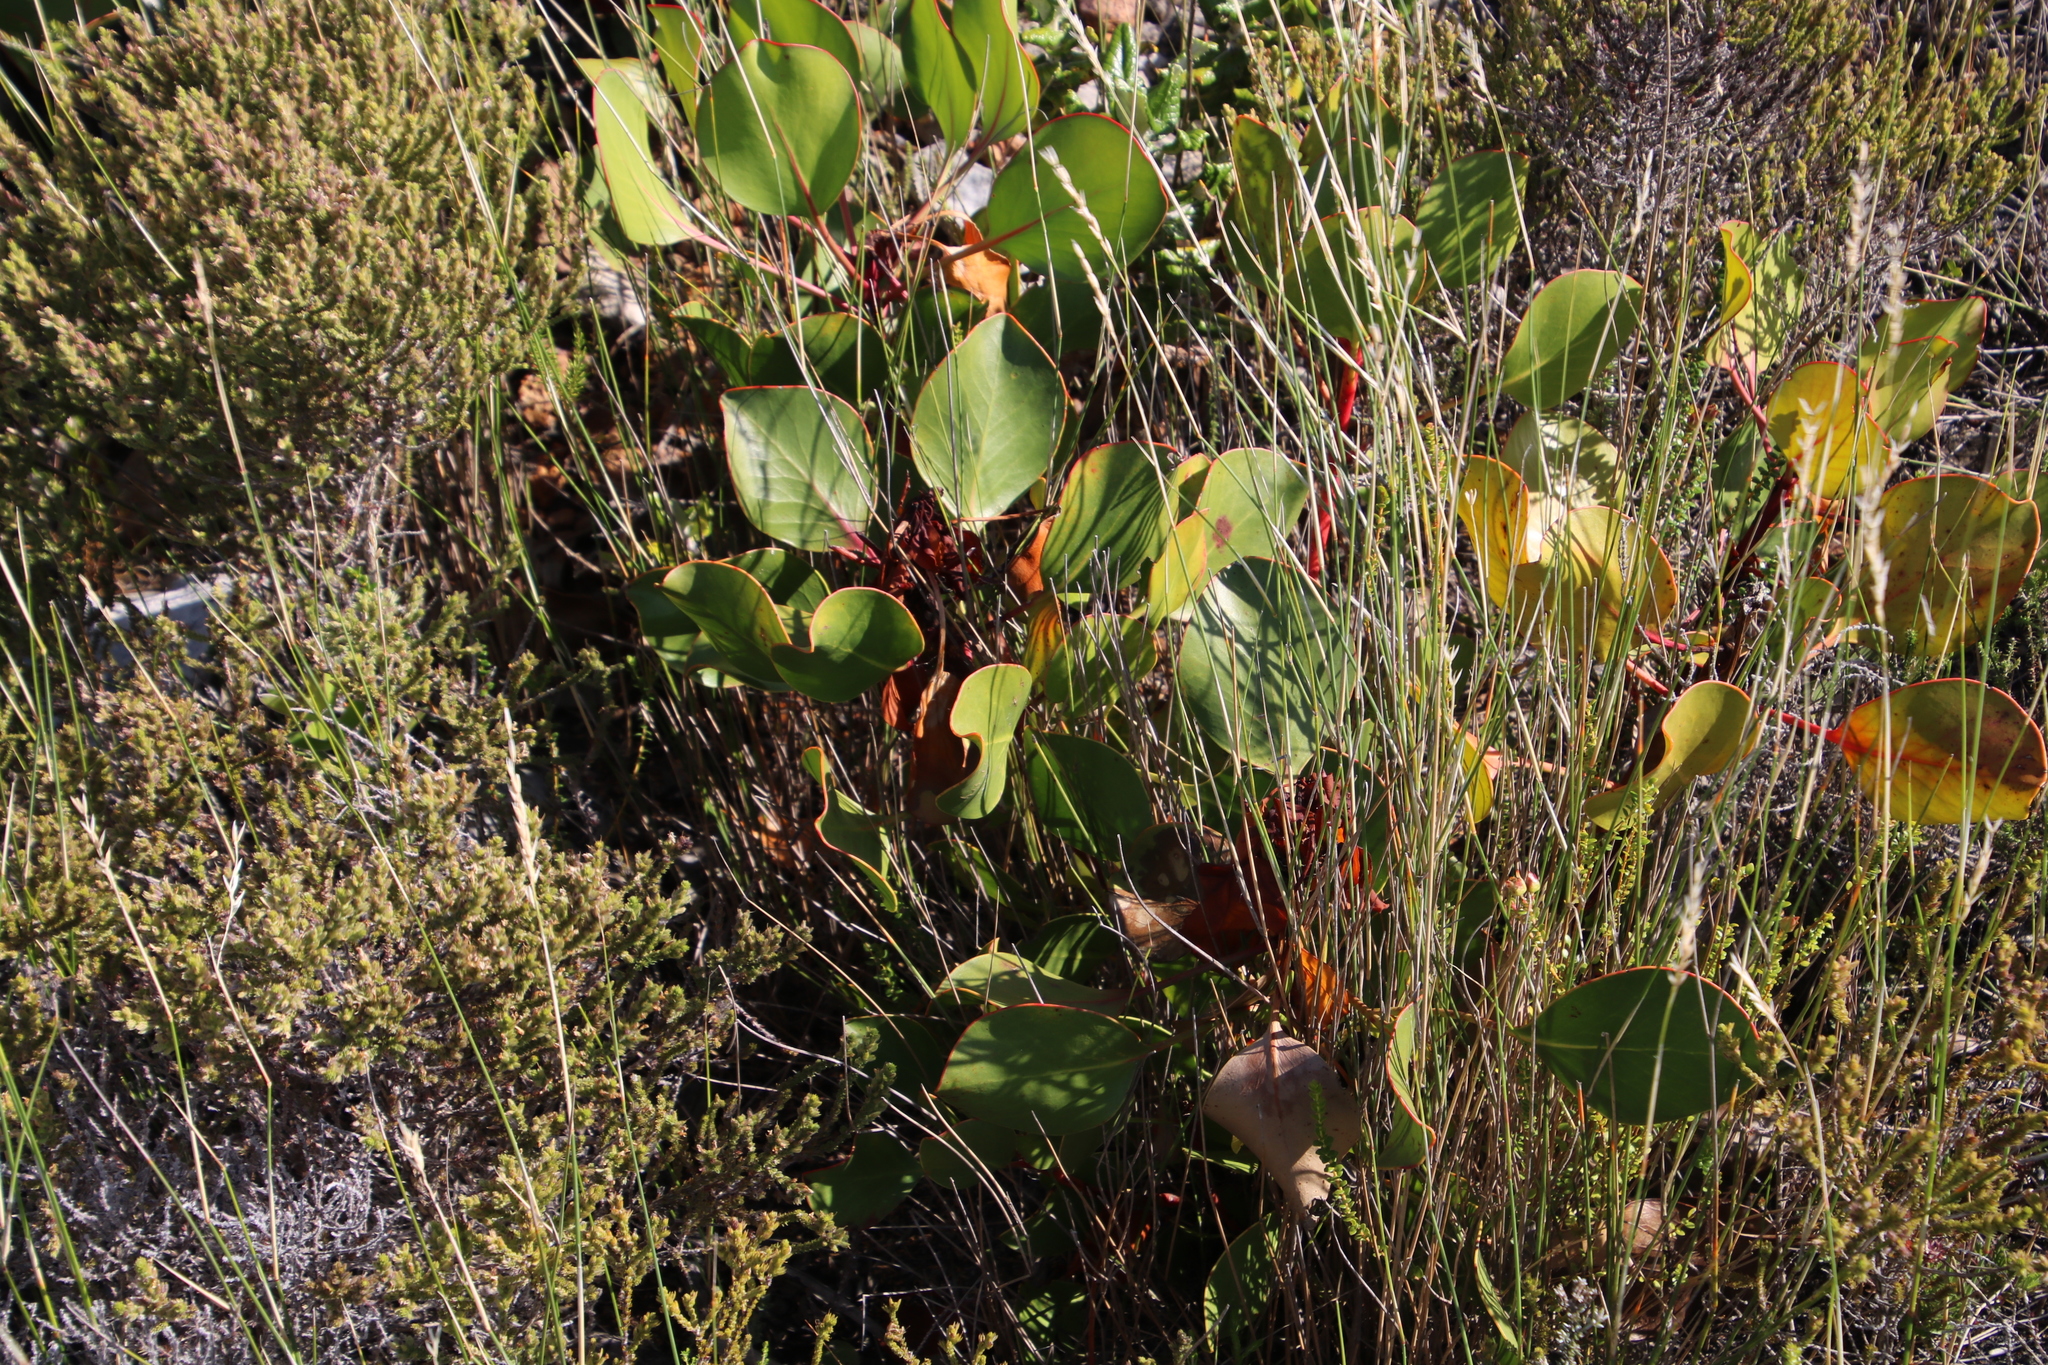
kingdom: Plantae
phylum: Tracheophyta
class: Magnoliopsida
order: Proteales
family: Proteaceae
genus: Protea
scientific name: Protea cynaroides
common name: King protea
